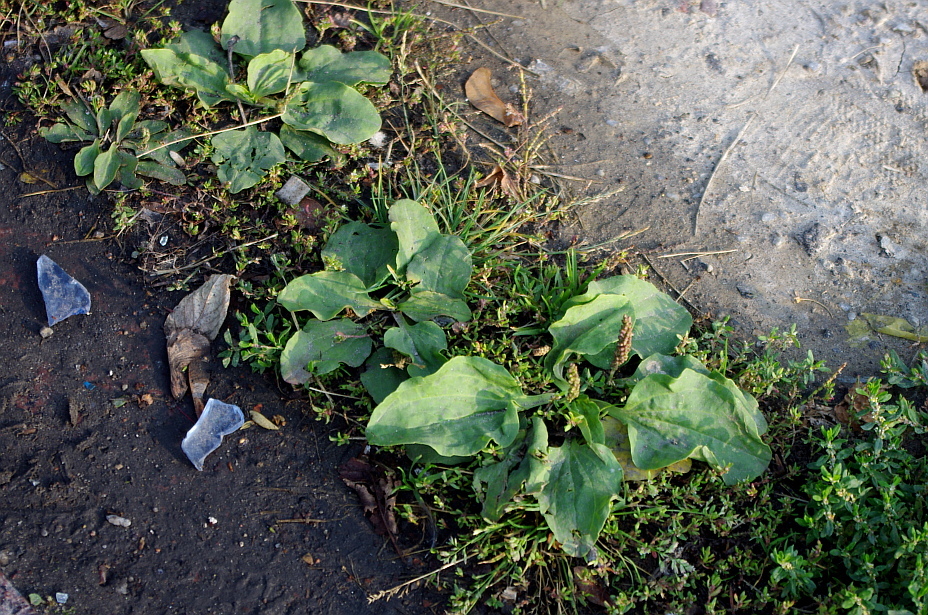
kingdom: Plantae
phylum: Tracheophyta
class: Magnoliopsida
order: Lamiales
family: Plantaginaceae
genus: Plantago
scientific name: Plantago major
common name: Common plantain
